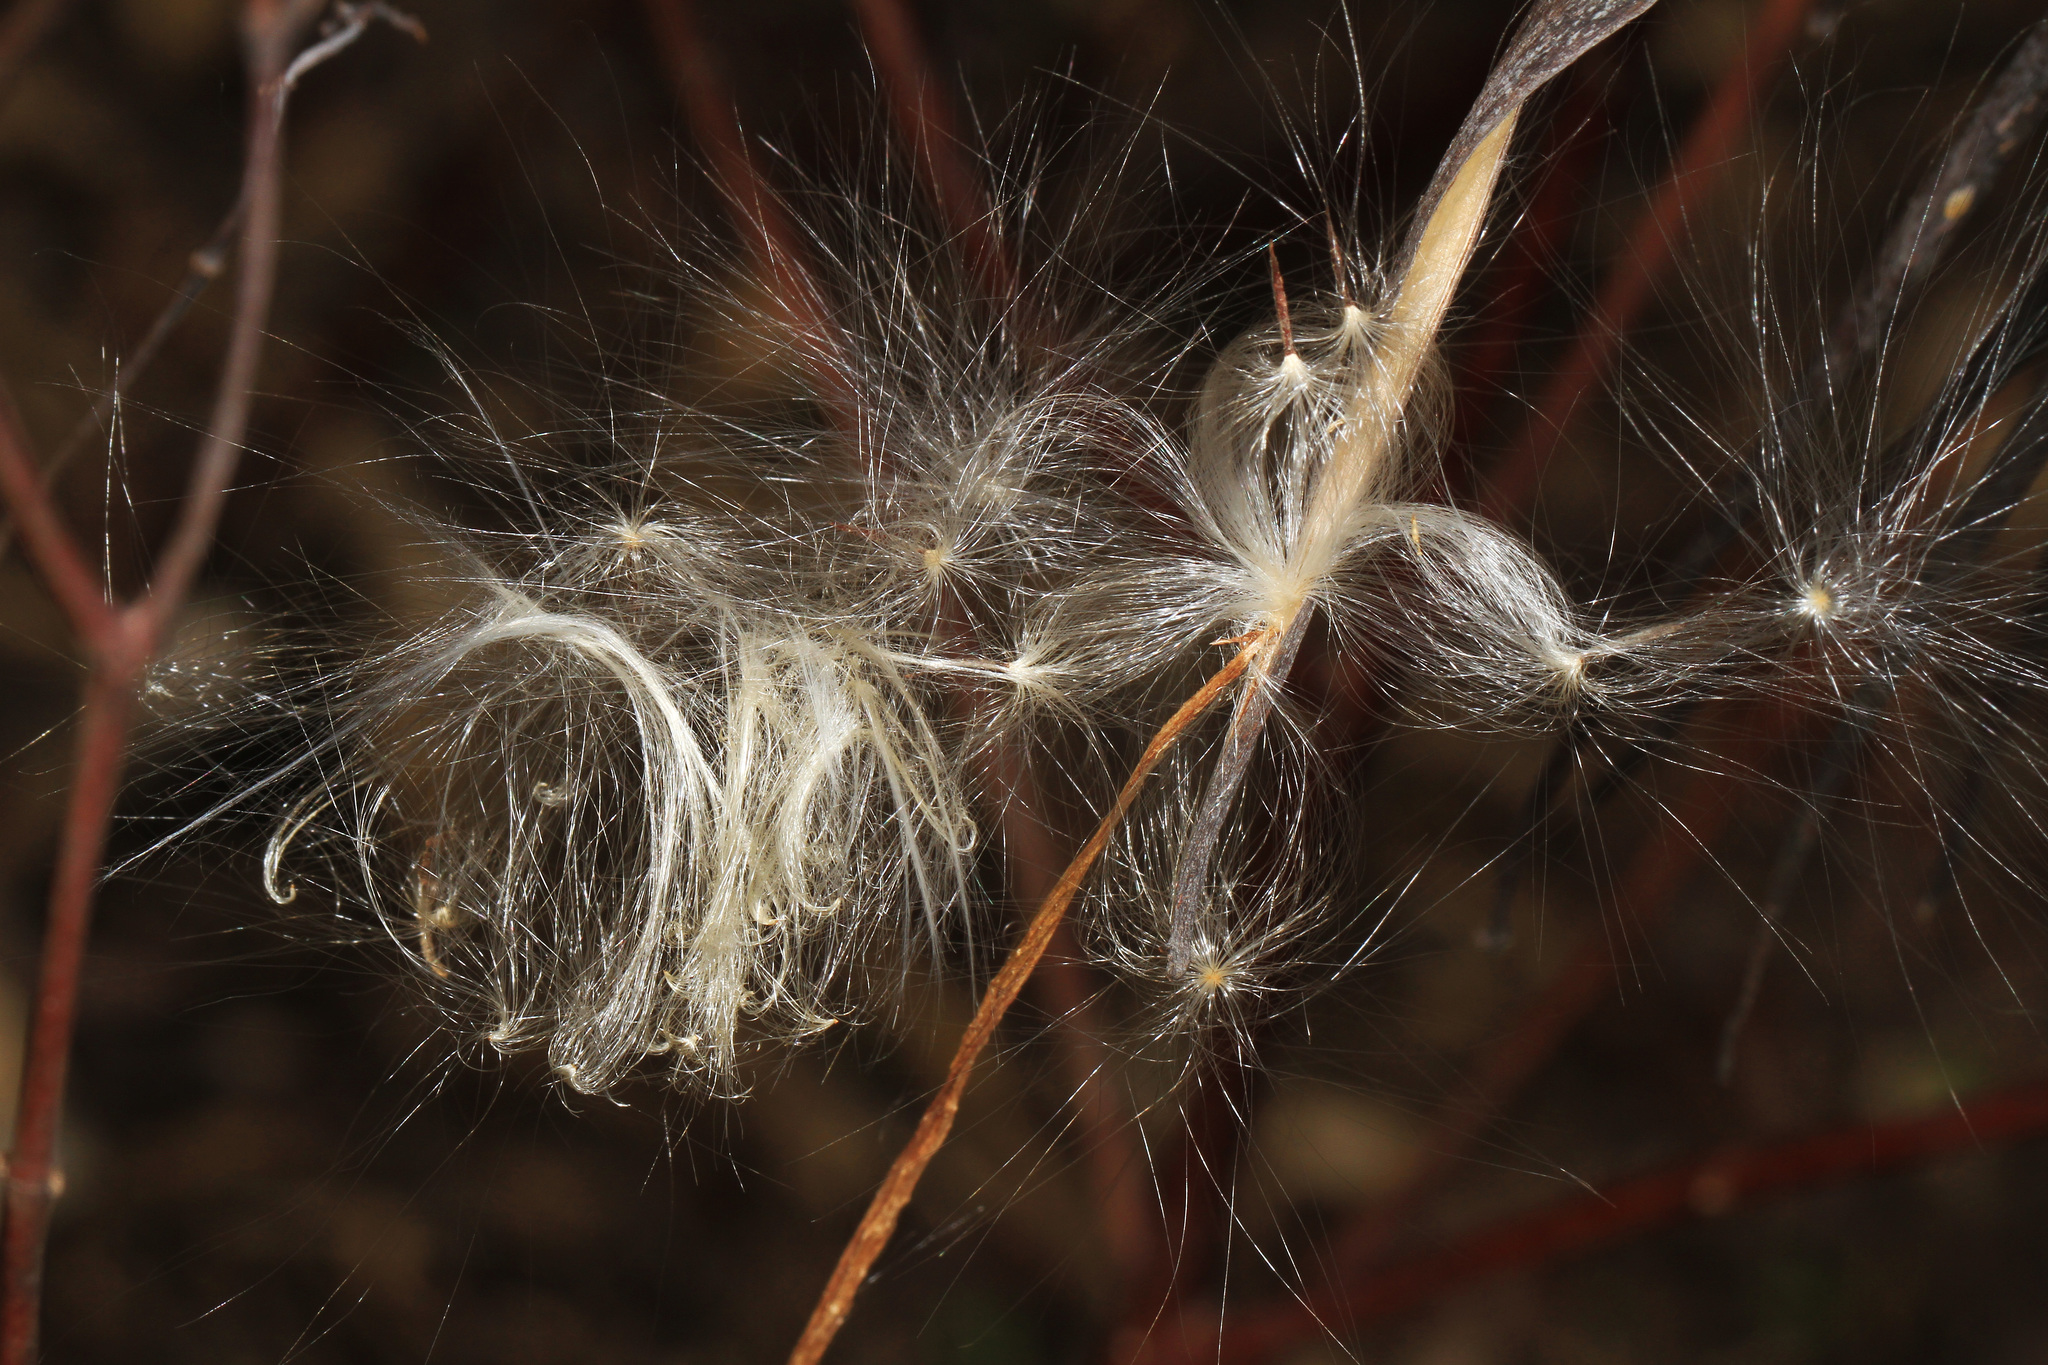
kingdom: Plantae
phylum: Tracheophyta
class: Magnoliopsida
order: Gentianales
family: Apocynaceae
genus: Apocynum
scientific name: Apocynum cannabinum
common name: Hemp dogbane
